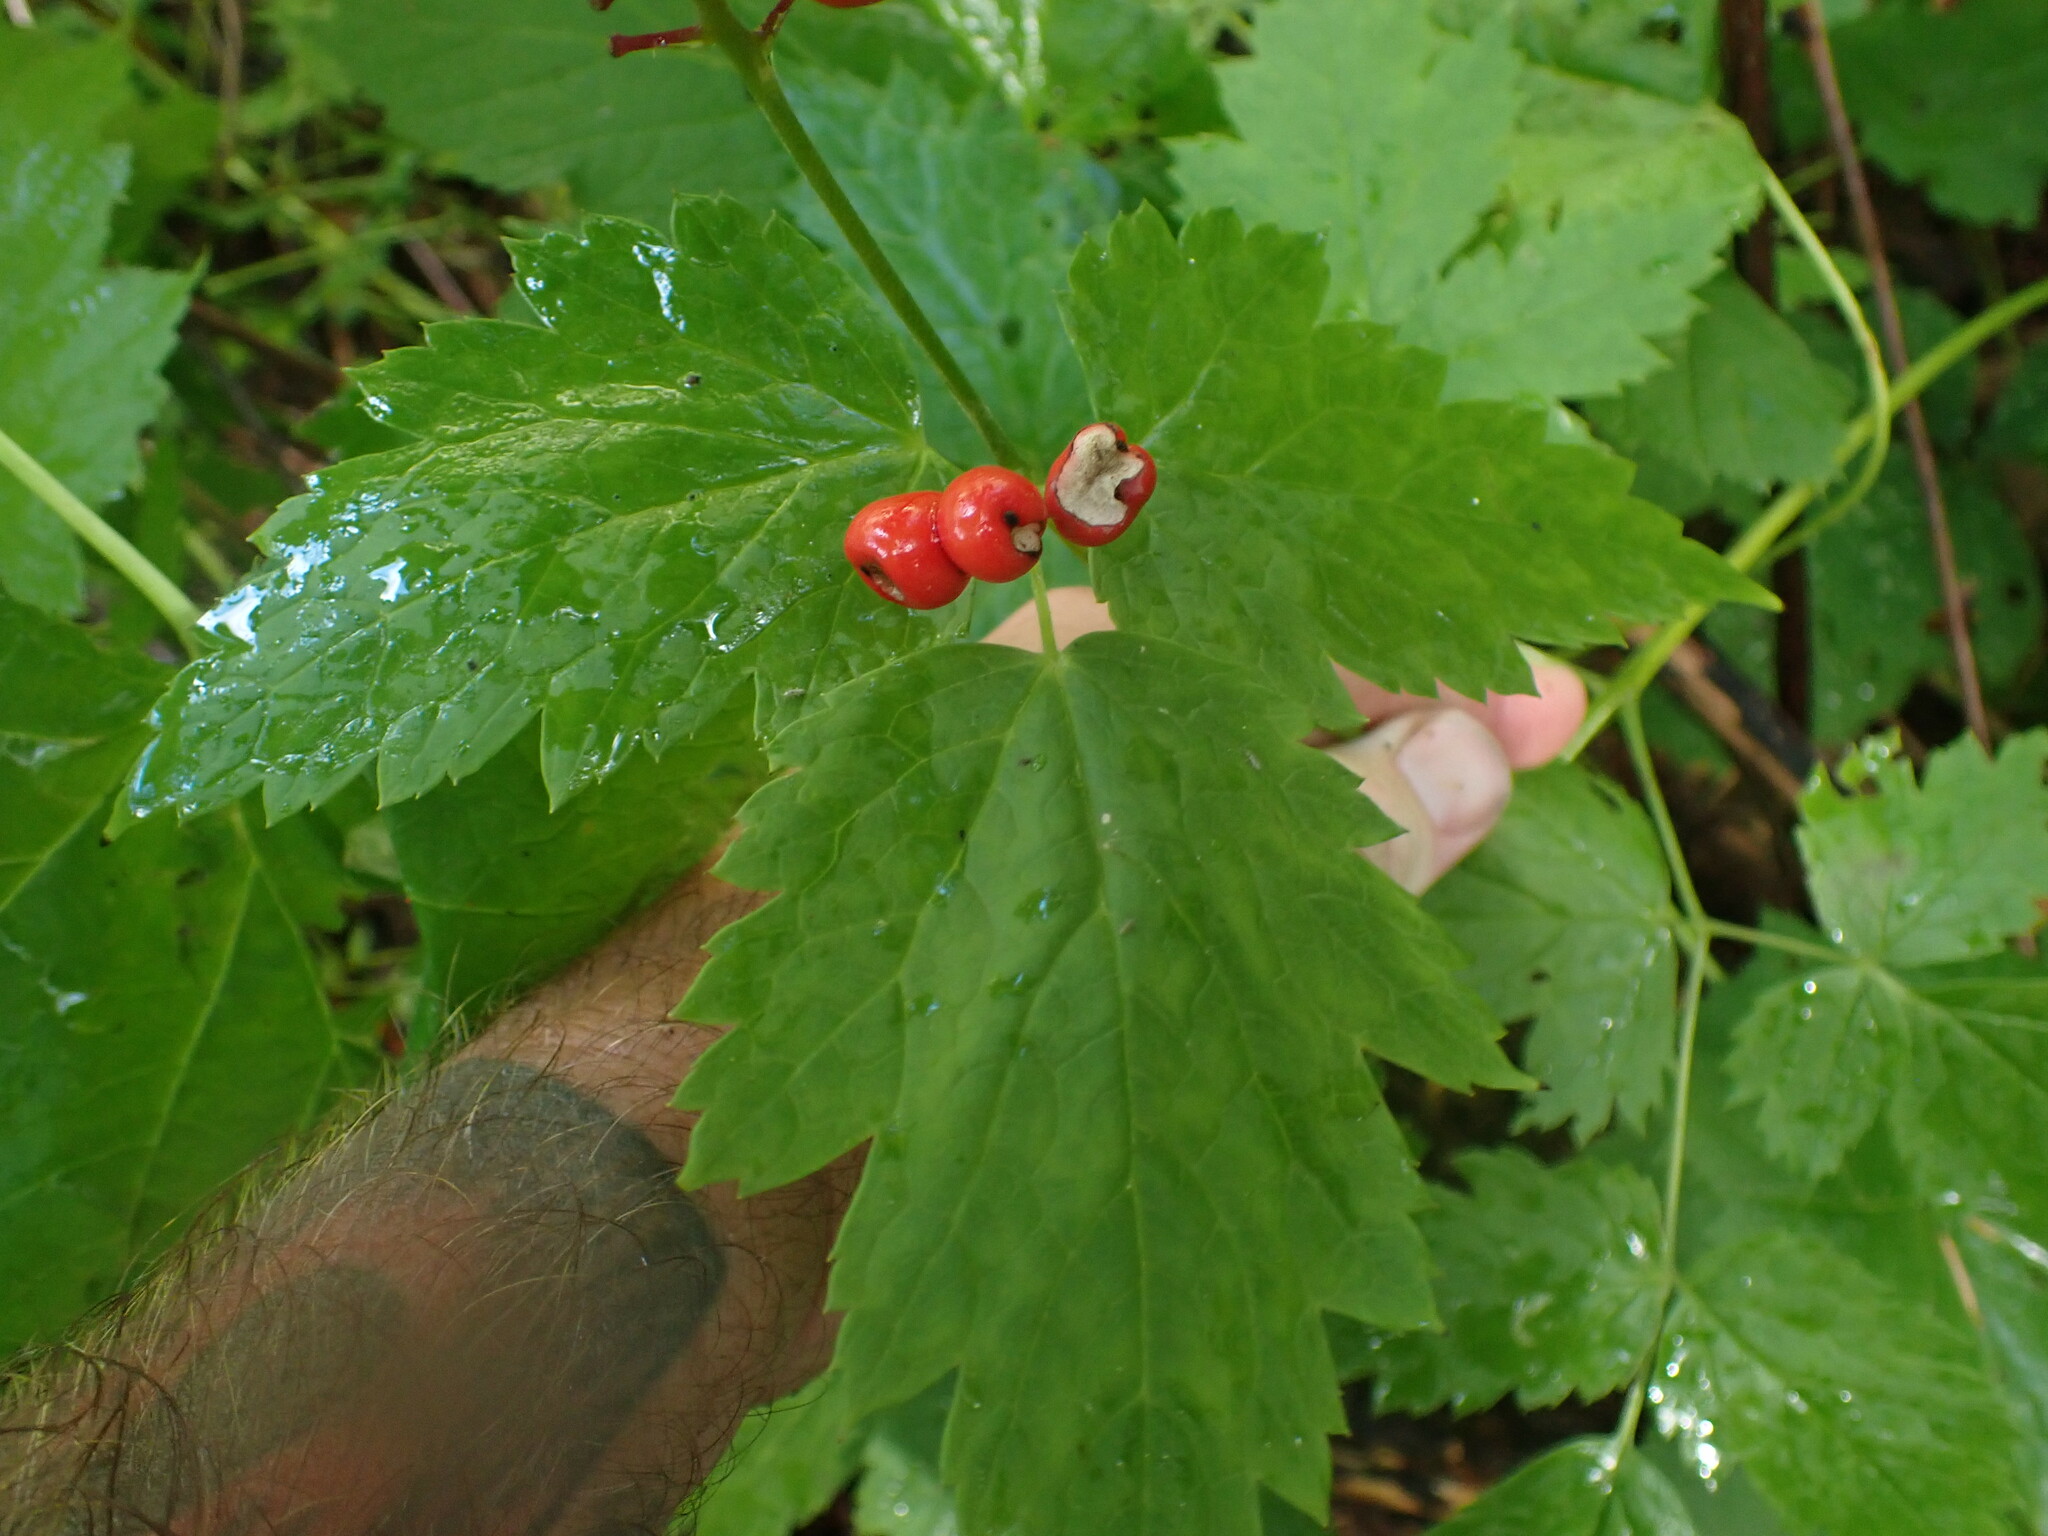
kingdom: Plantae
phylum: Tracheophyta
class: Magnoliopsida
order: Ranunculales
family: Ranunculaceae
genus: Actaea
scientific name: Actaea rubra
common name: Red baneberry
